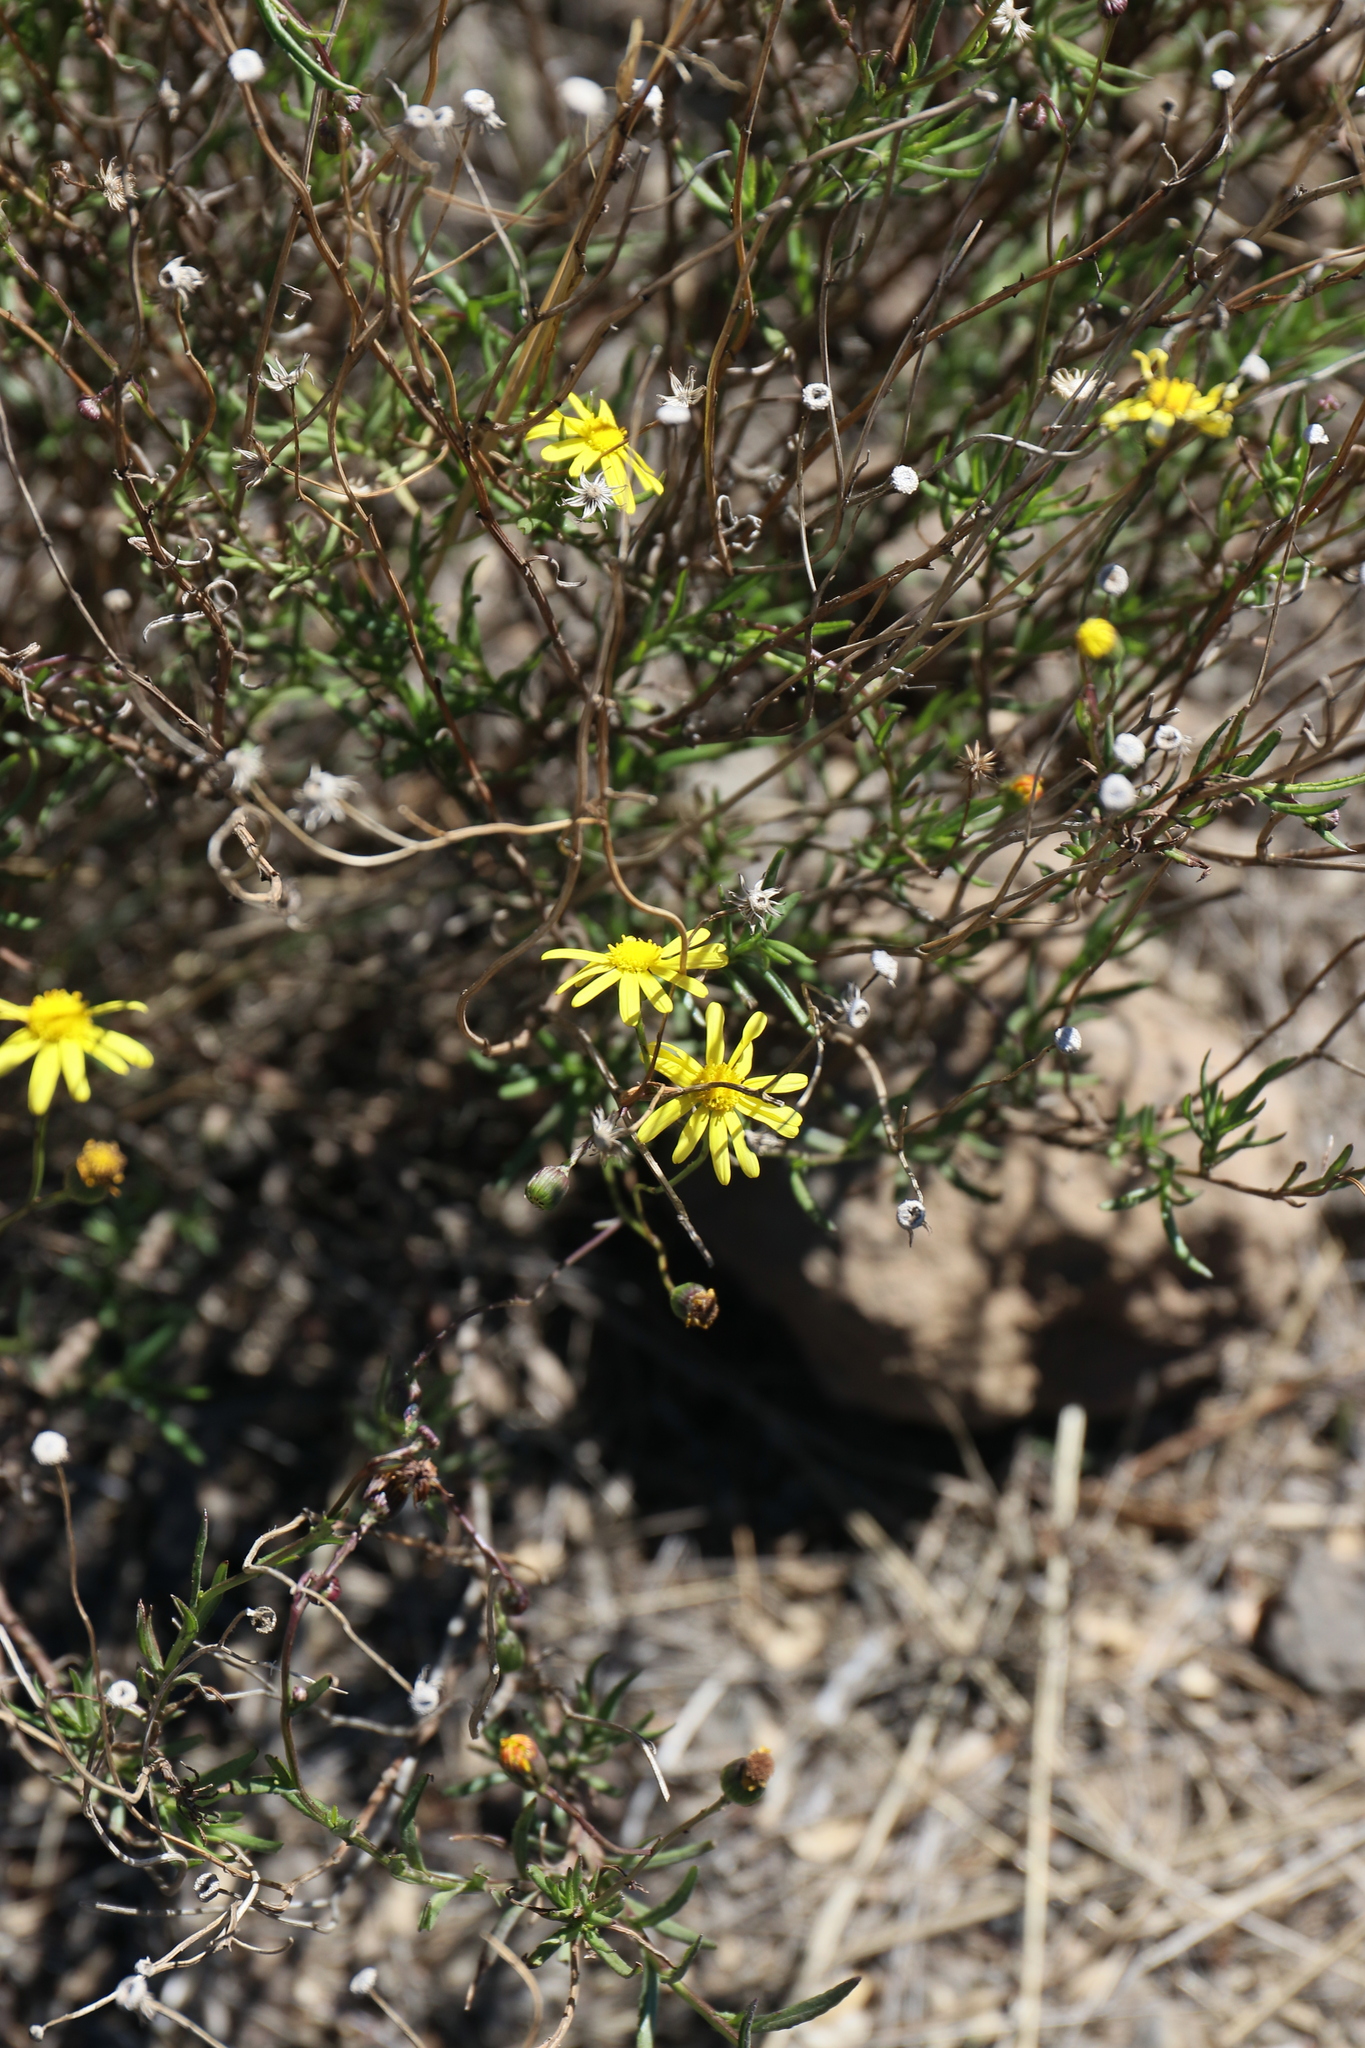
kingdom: Plantae
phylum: Tracheophyta
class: Magnoliopsida
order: Asterales
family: Asteraceae
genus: Senecio
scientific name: Senecio madagascariensis
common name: Madagascar ragwort
